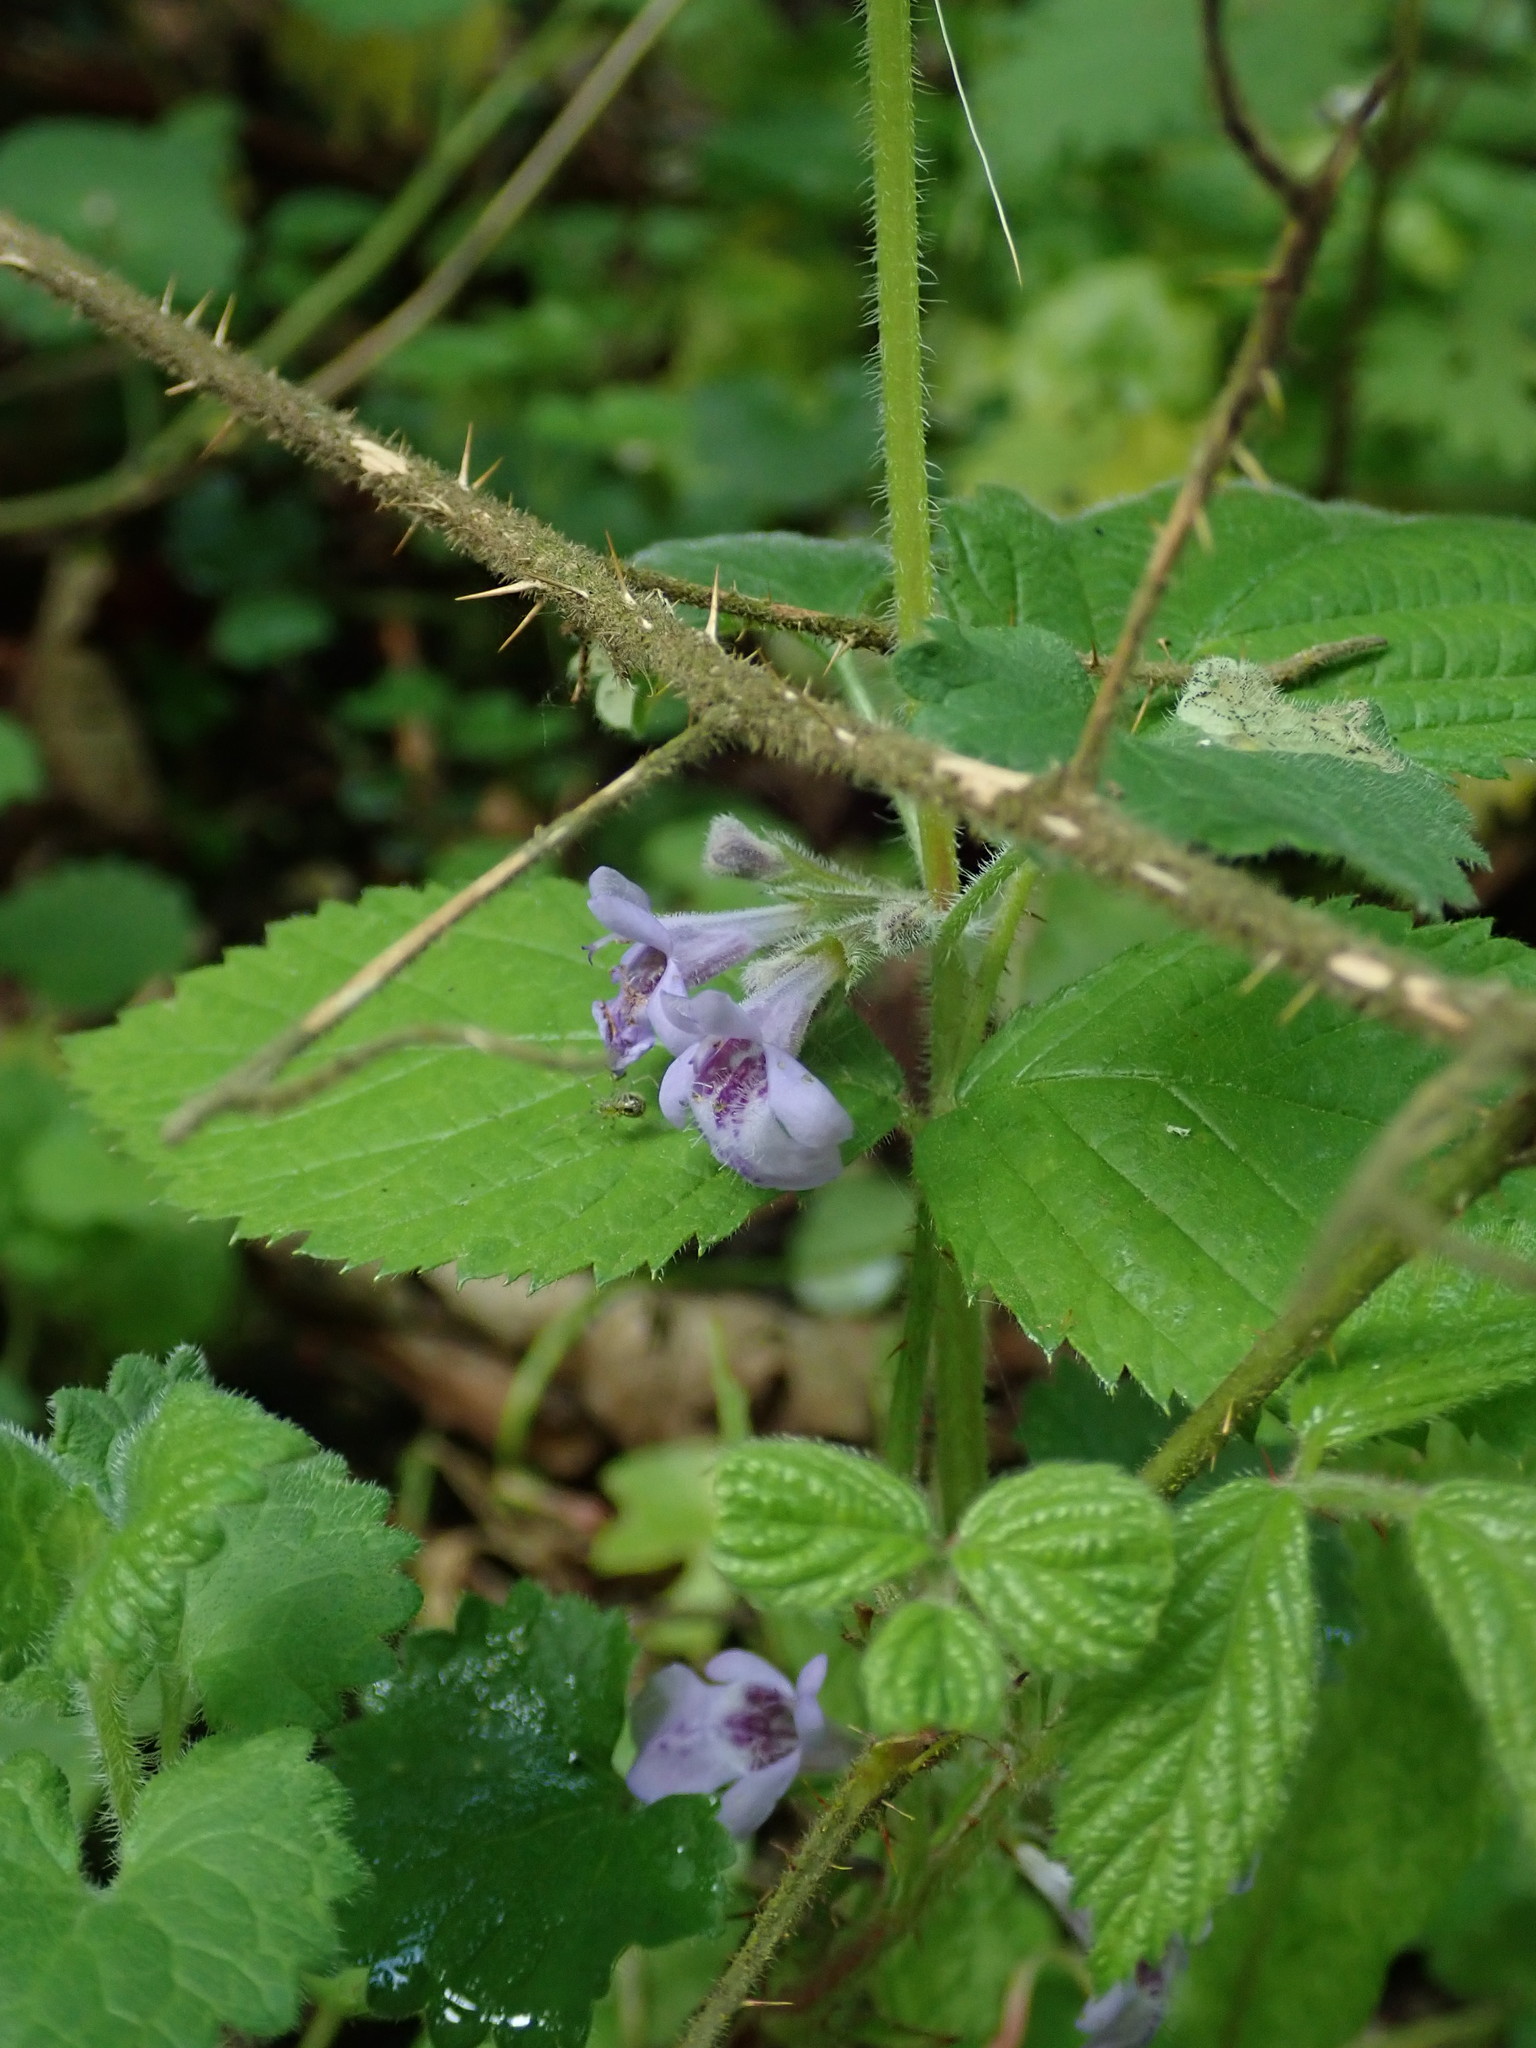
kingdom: Plantae
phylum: Tracheophyta
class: Magnoliopsida
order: Lamiales
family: Lamiaceae
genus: Glechoma
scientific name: Glechoma hederacea
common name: Ground ivy
